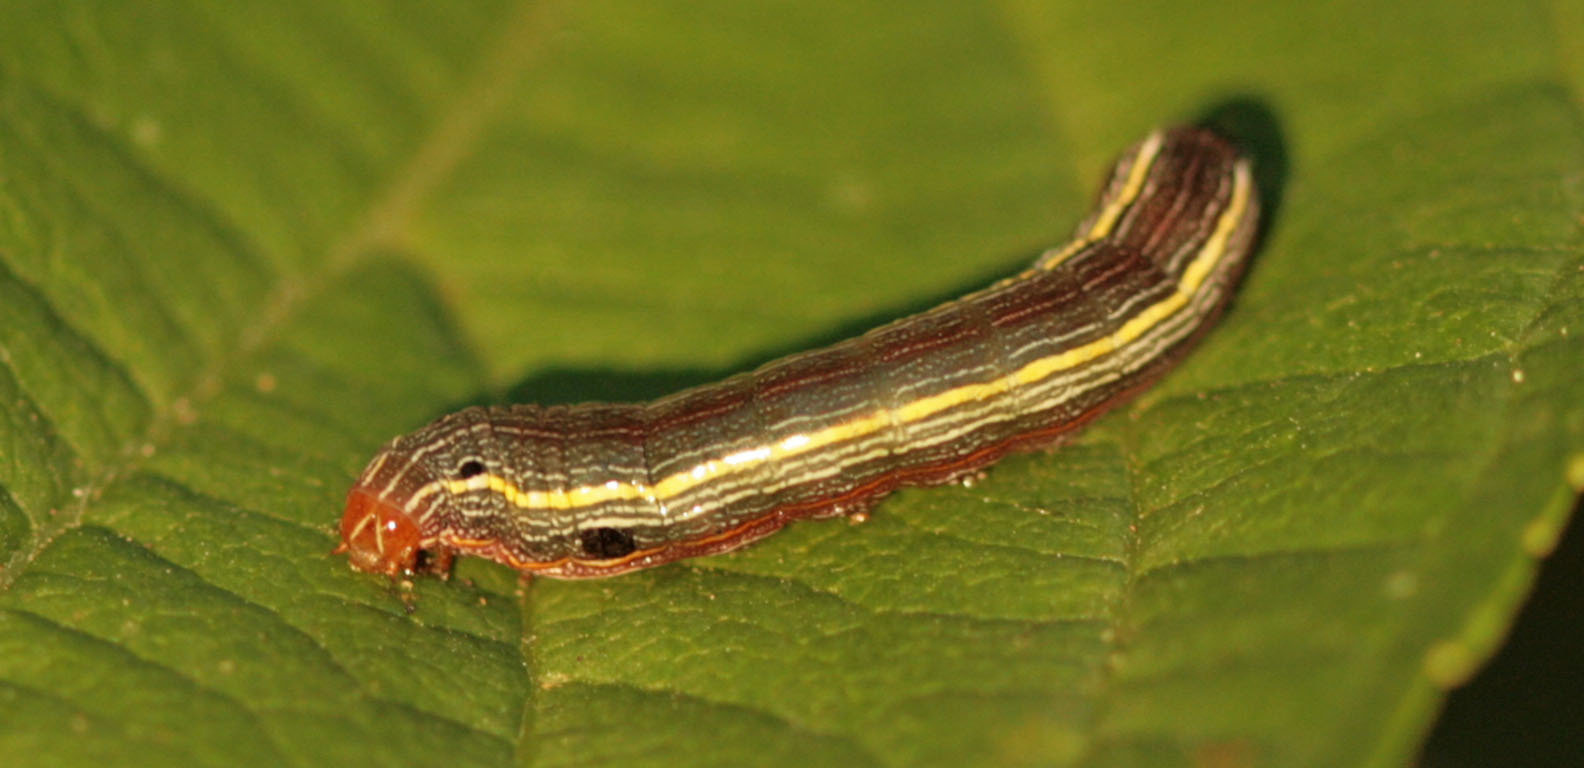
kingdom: Animalia
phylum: Arthropoda
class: Insecta
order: Lepidoptera
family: Noctuidae
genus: Spodoptera
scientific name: Spodoptera ornithogalli
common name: Yellow-striped armyworm
